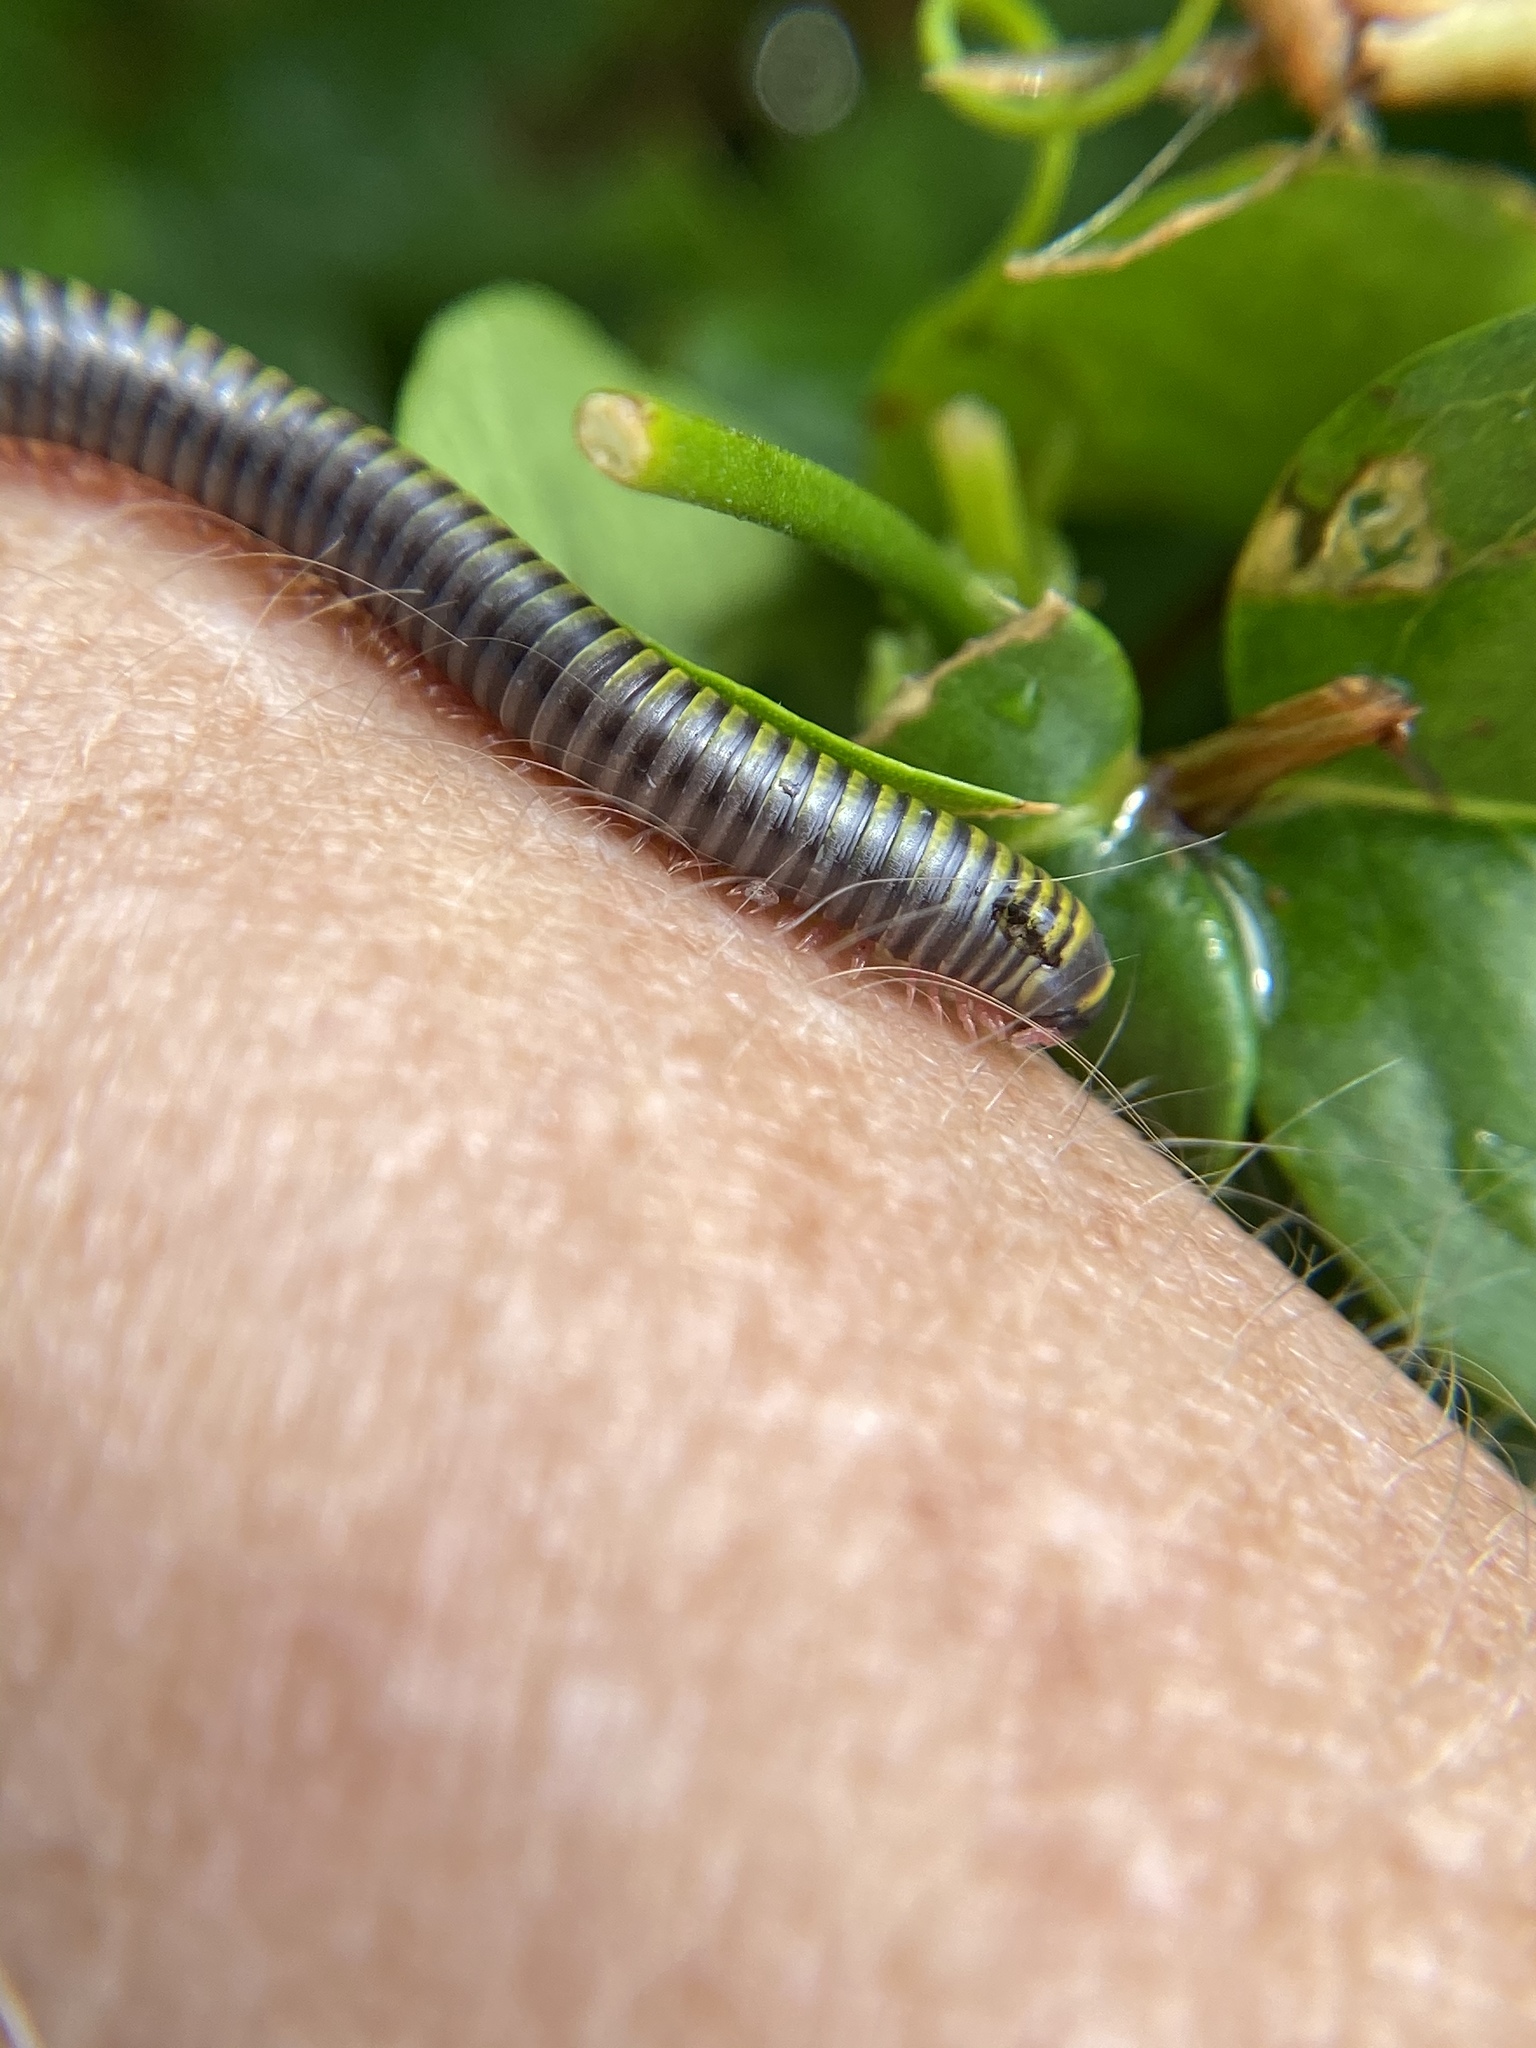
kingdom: Animalia
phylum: Arthropoda
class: Diplopoda
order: Spirobolida
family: Rhinocricidae
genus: Anadenobolus
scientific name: Anadenobolus monilicornis
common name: Caribbean millipede
